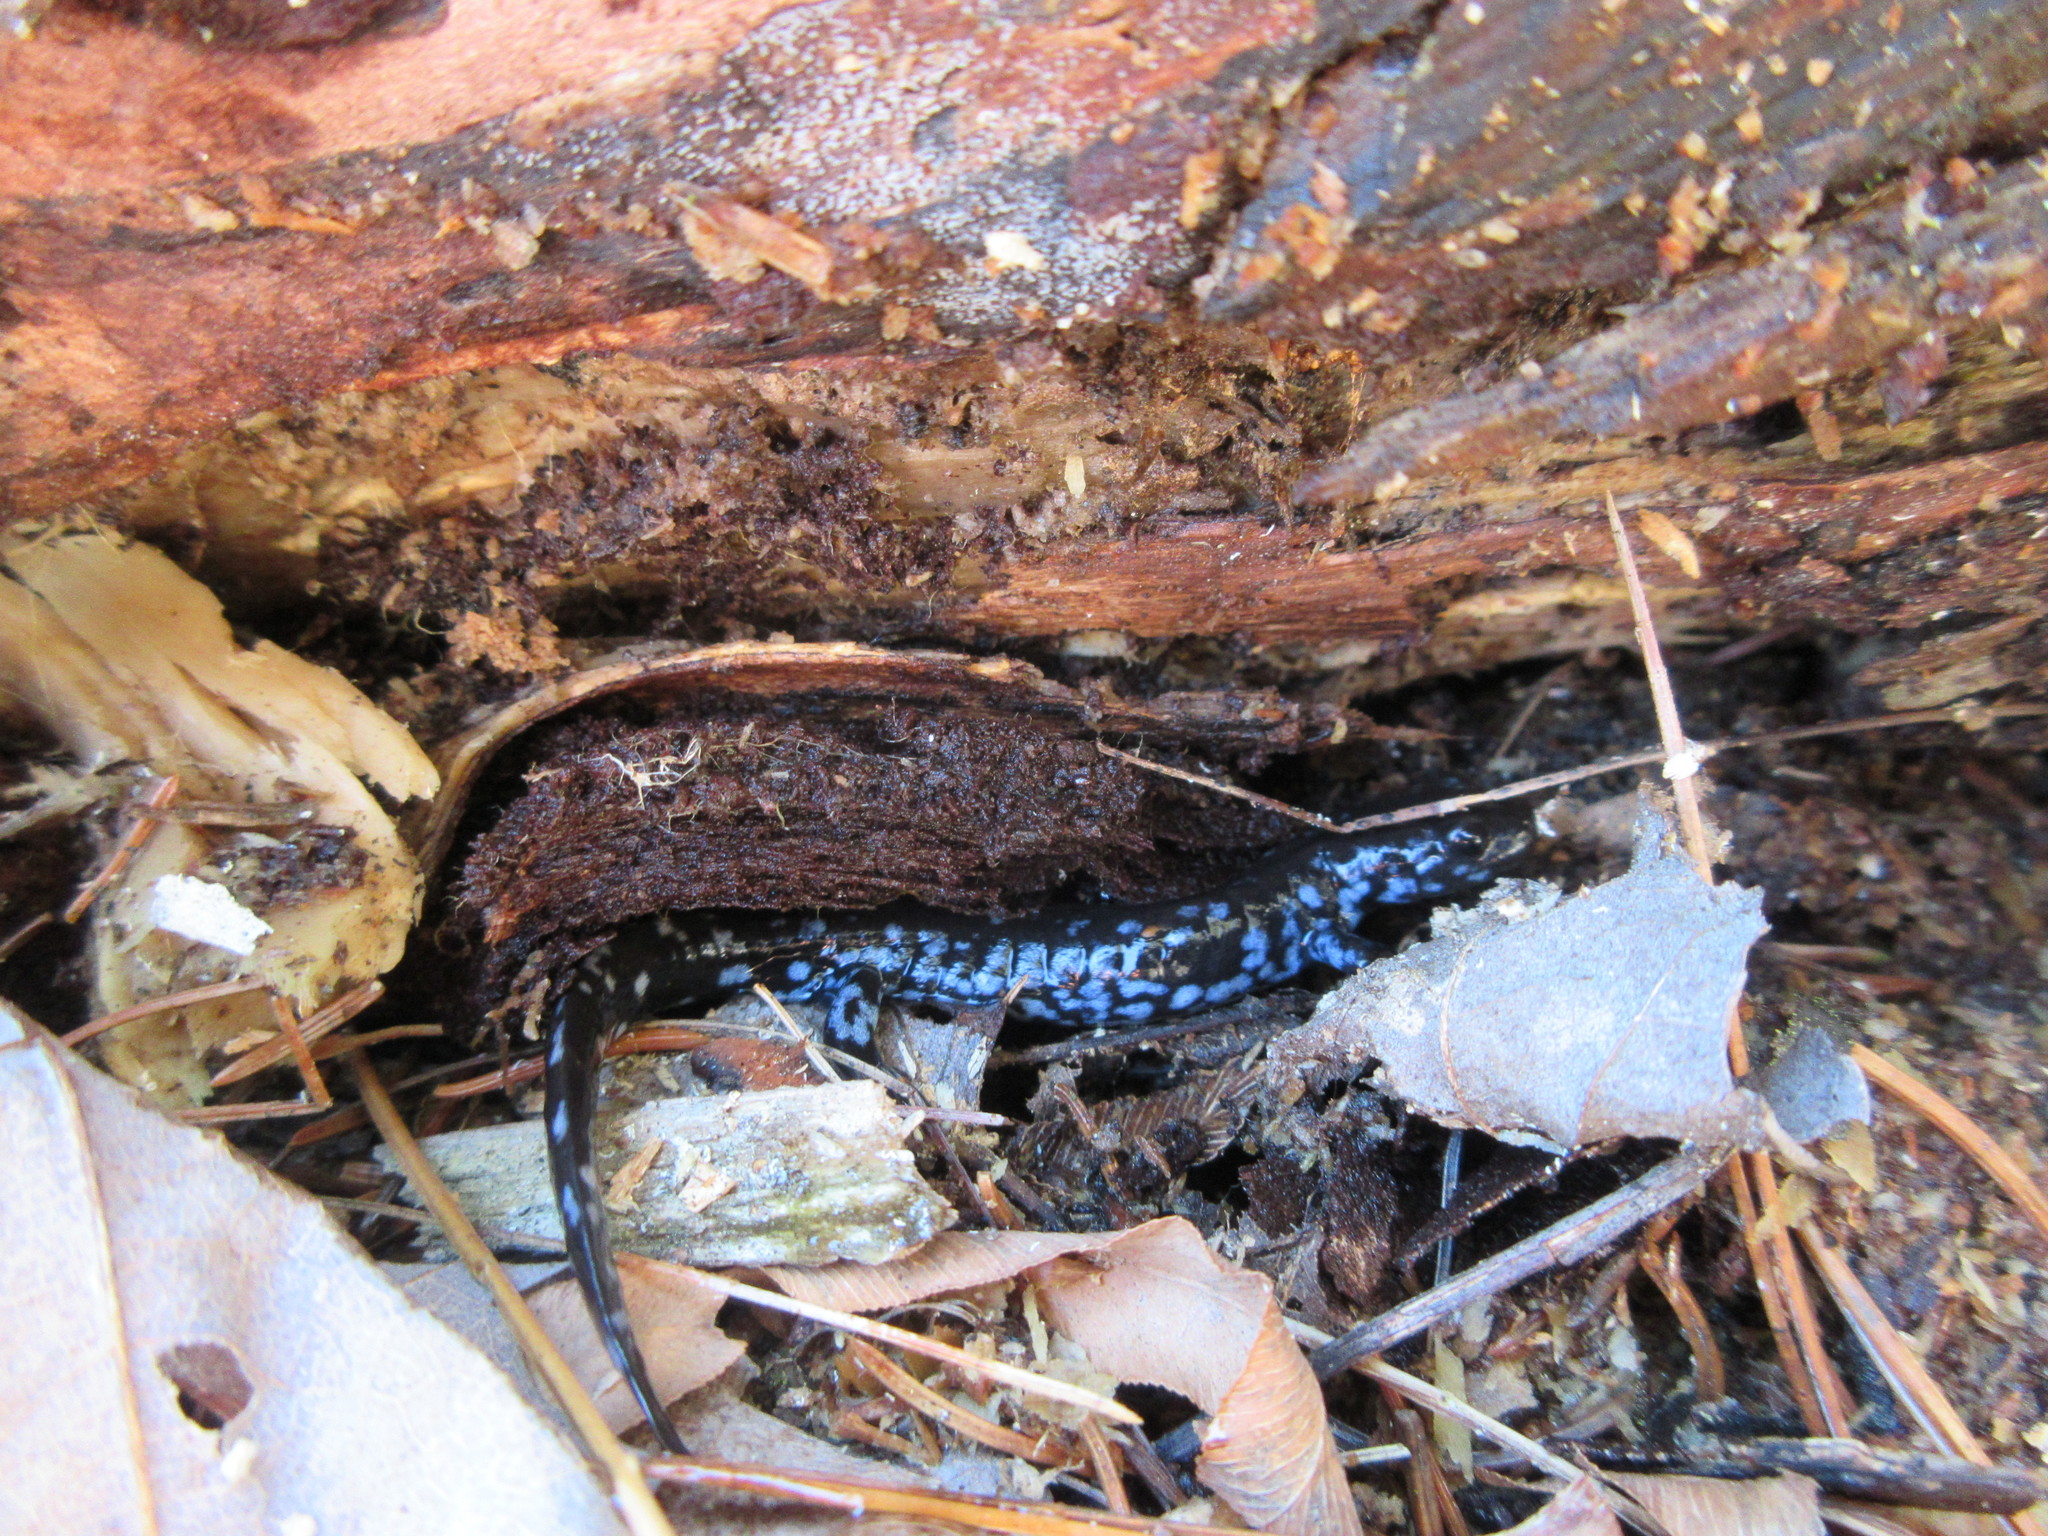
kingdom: Animalia
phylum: Chordata
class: Amphibia
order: Caudata
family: Ambystomatidae
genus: Ambystoma
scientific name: Ambystoma laterale
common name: Blue-spotted salamander
